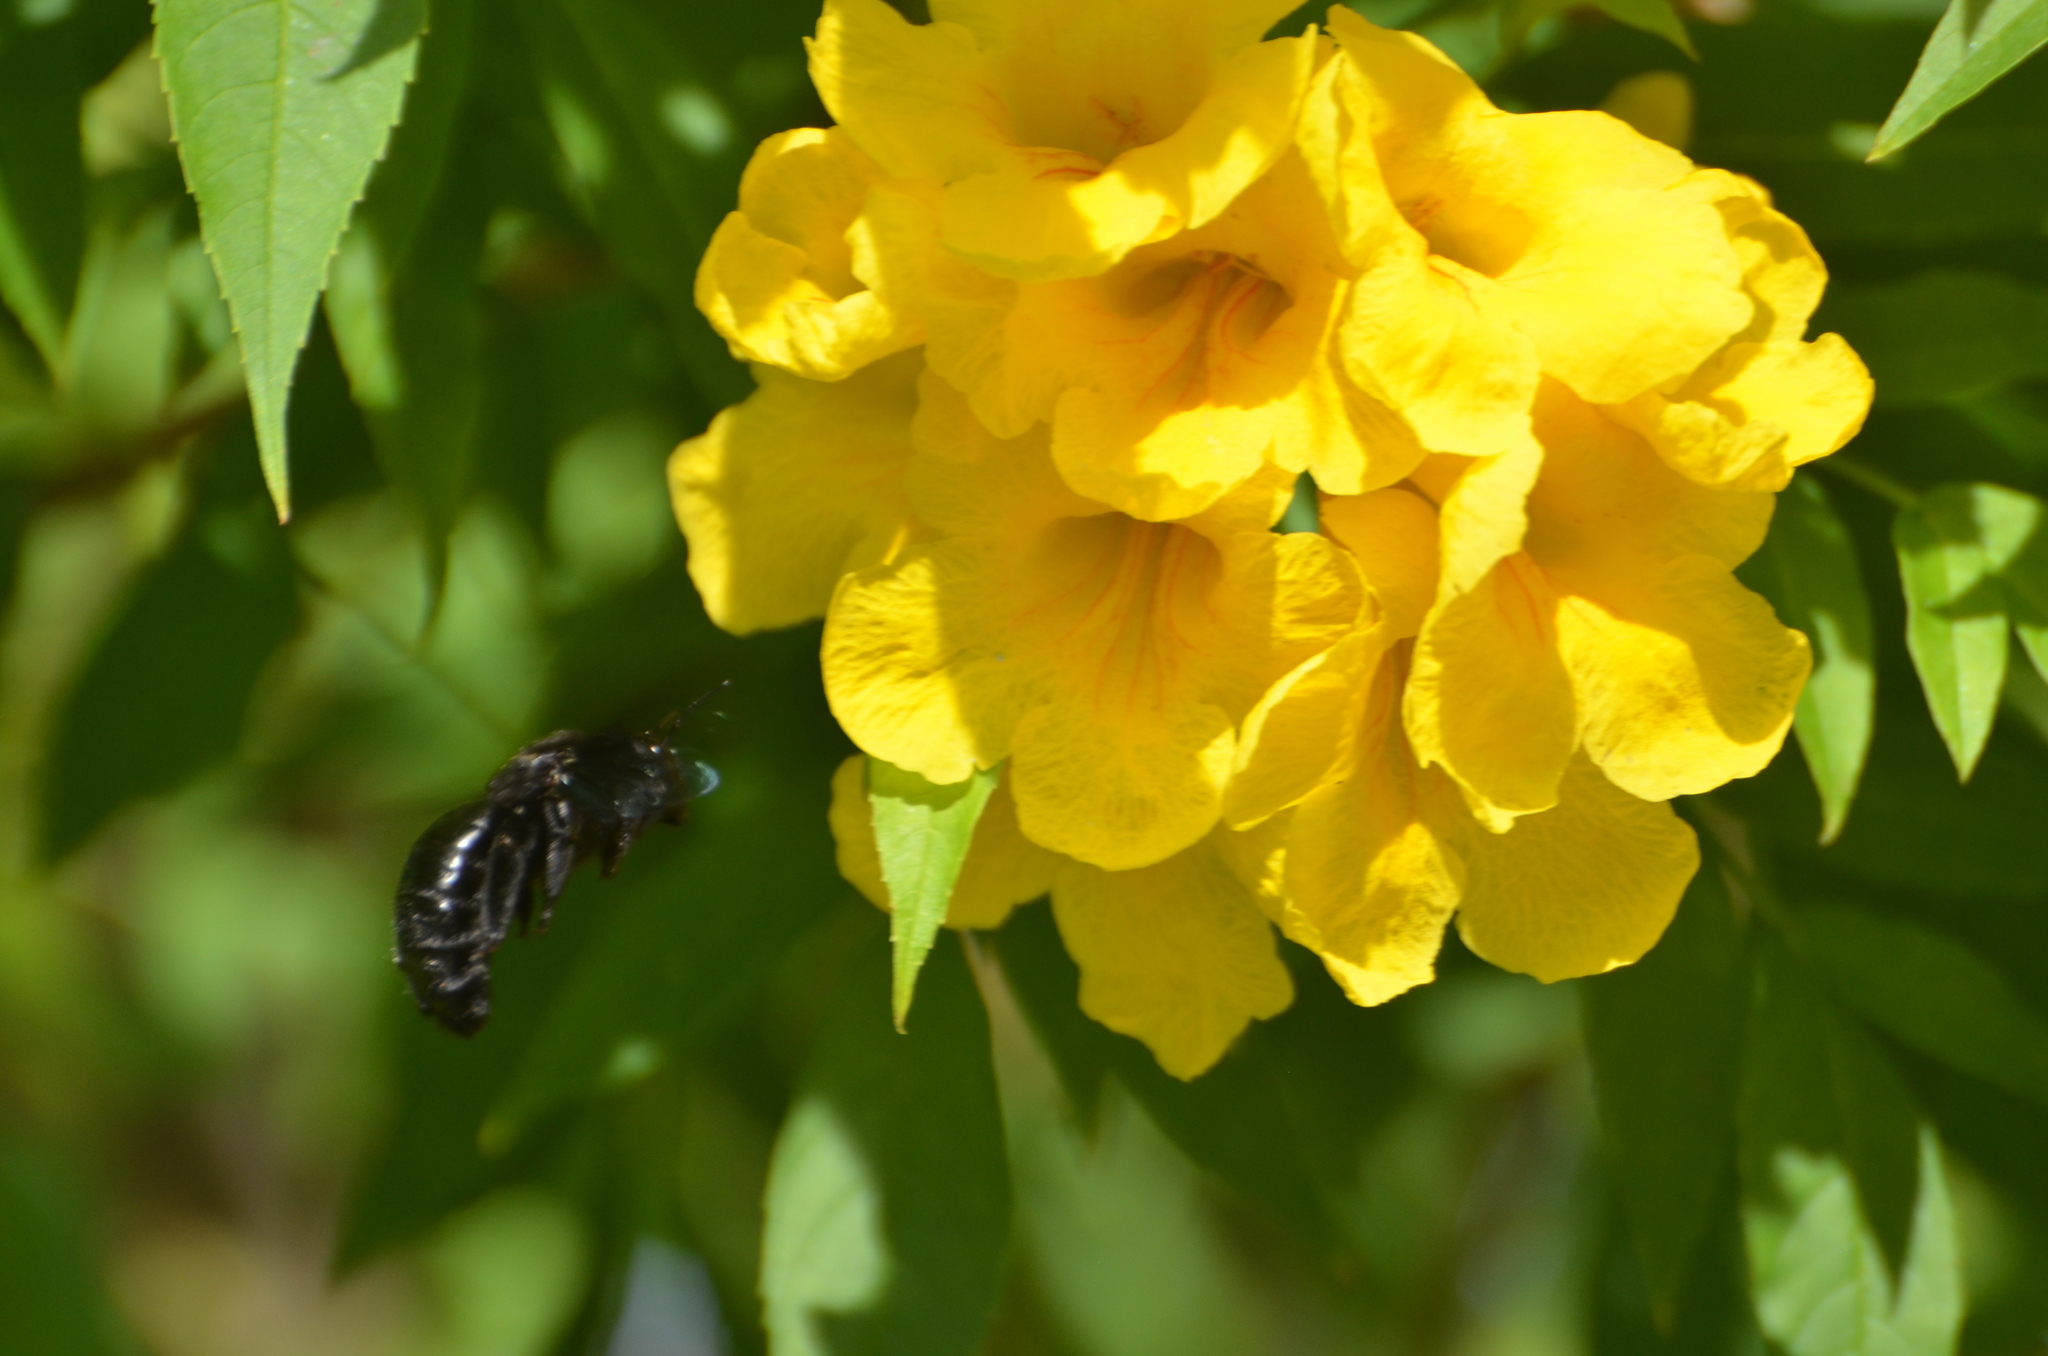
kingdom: Animalia
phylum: Arthropoda
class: Insecta
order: Hymenoptera
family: Apidae
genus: Xylocopa
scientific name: Xylocopa fimbriata
